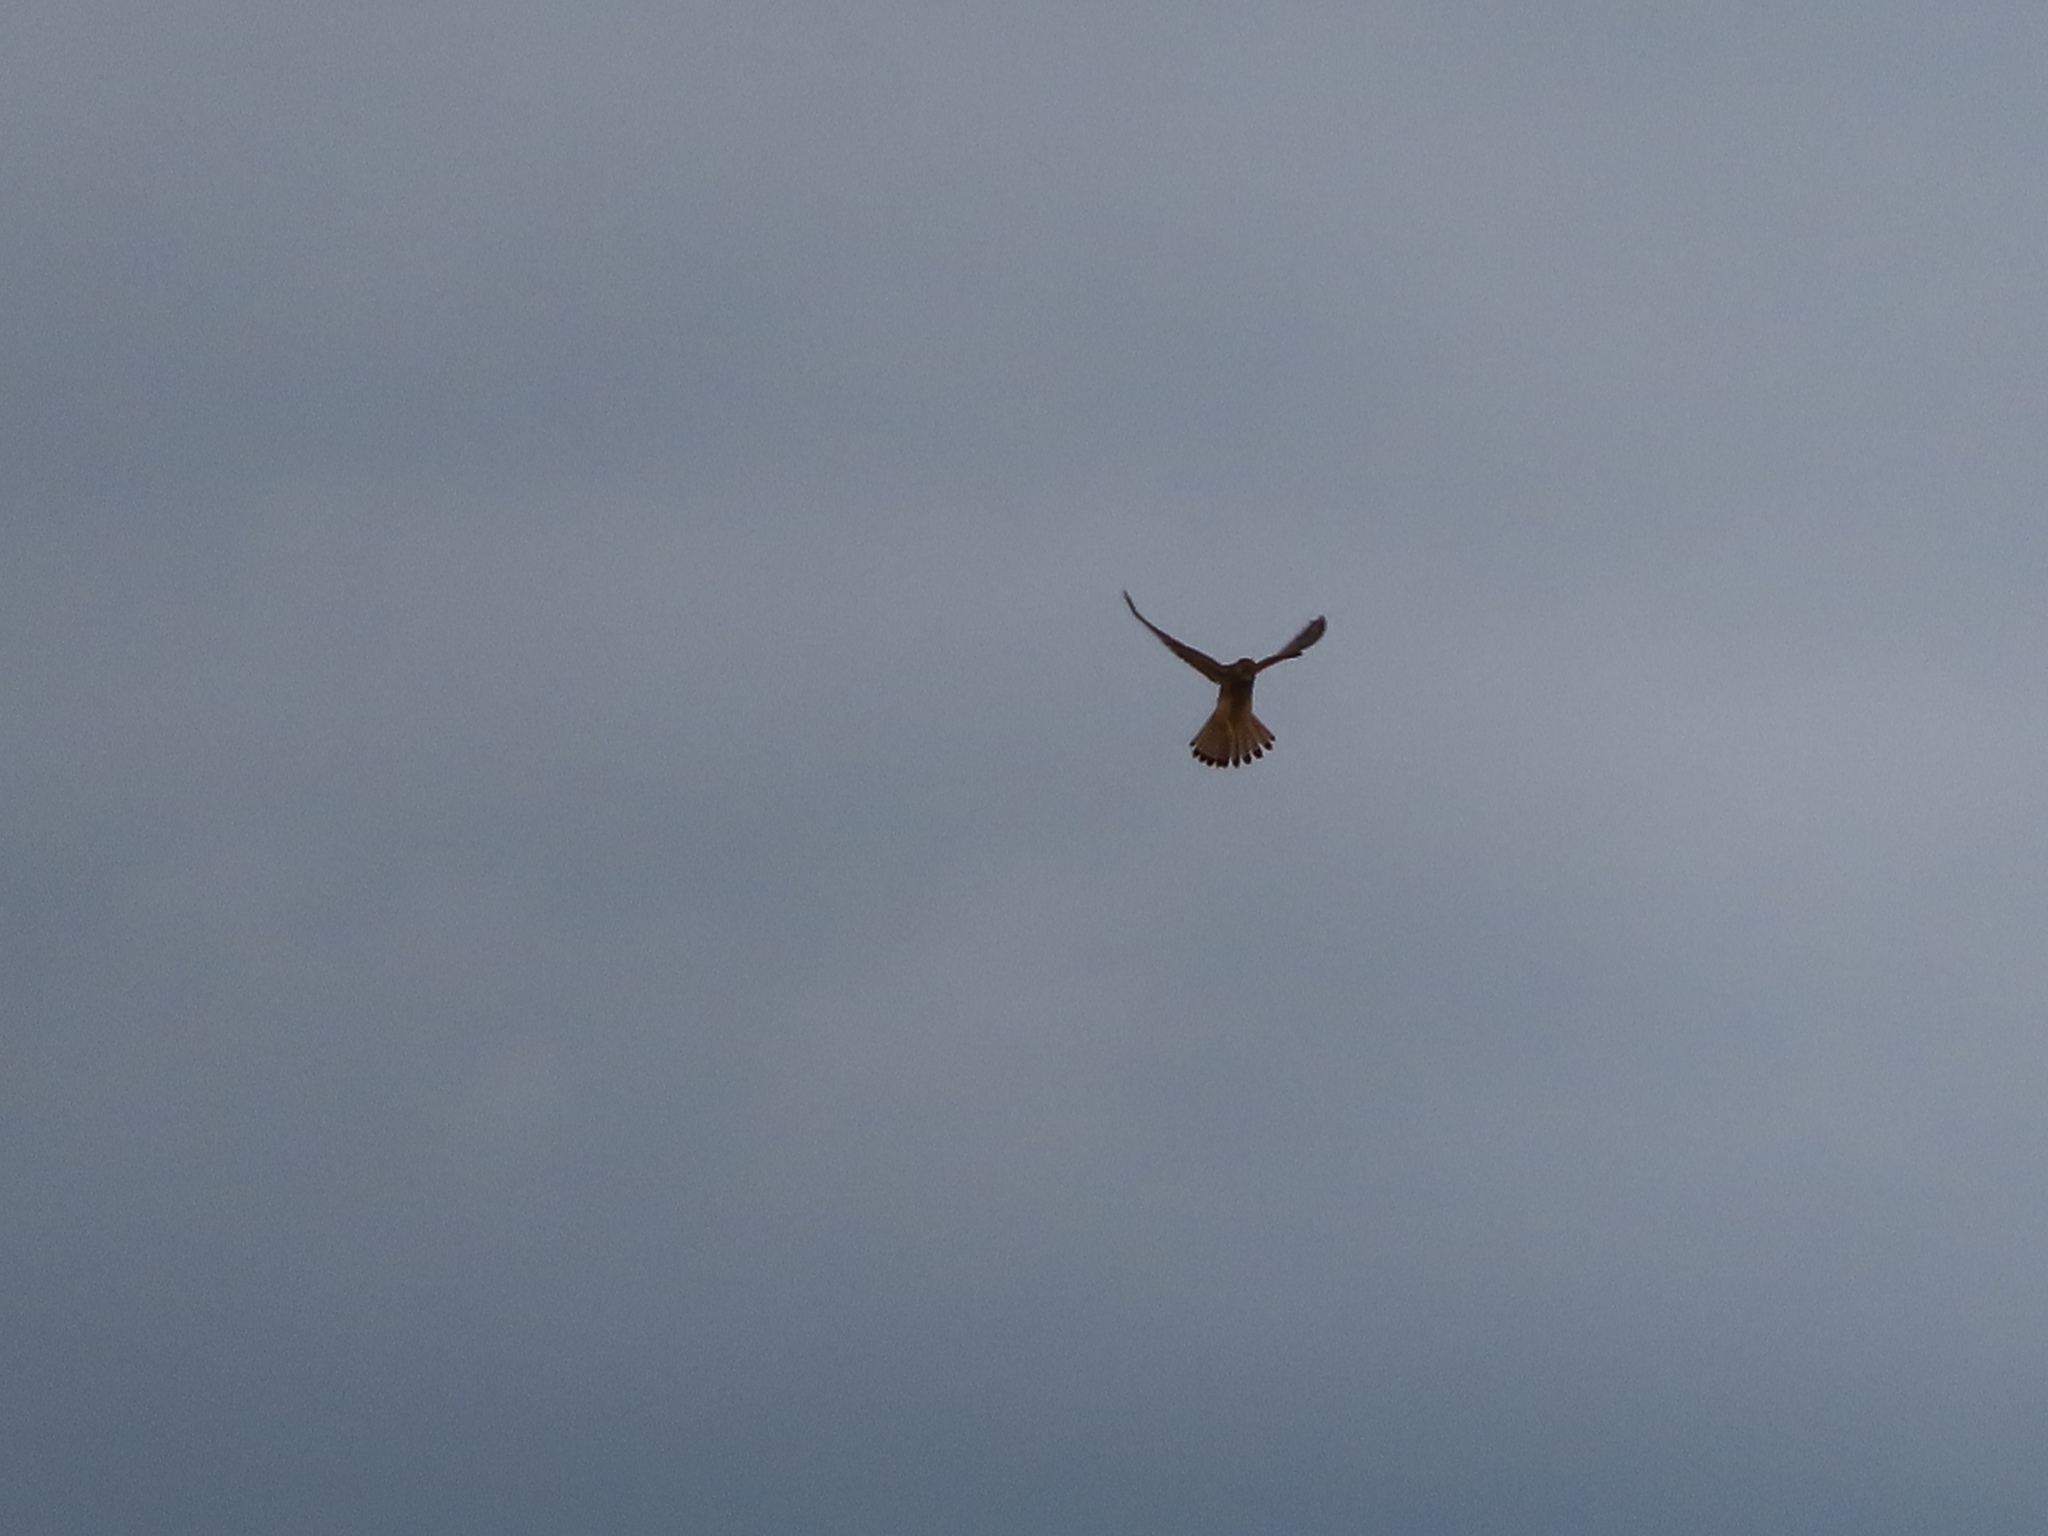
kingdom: Animalia
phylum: Chordata
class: Aves
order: Falconiformes
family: Falconidae
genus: Falco
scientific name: Falco tinnunculus
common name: Common kestrel
